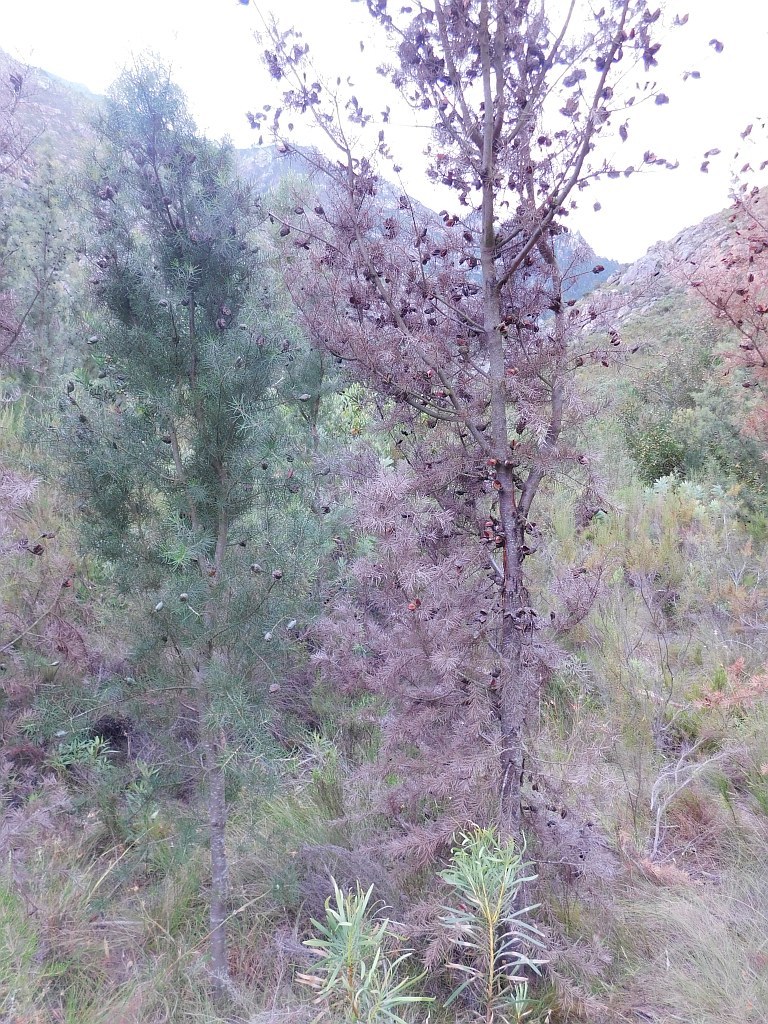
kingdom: Plantae
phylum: Tracheophyta
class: Magnoliopsida
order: Proteales
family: Proteaceae
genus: Hakea
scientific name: Hakea sericea
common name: Needle bush
